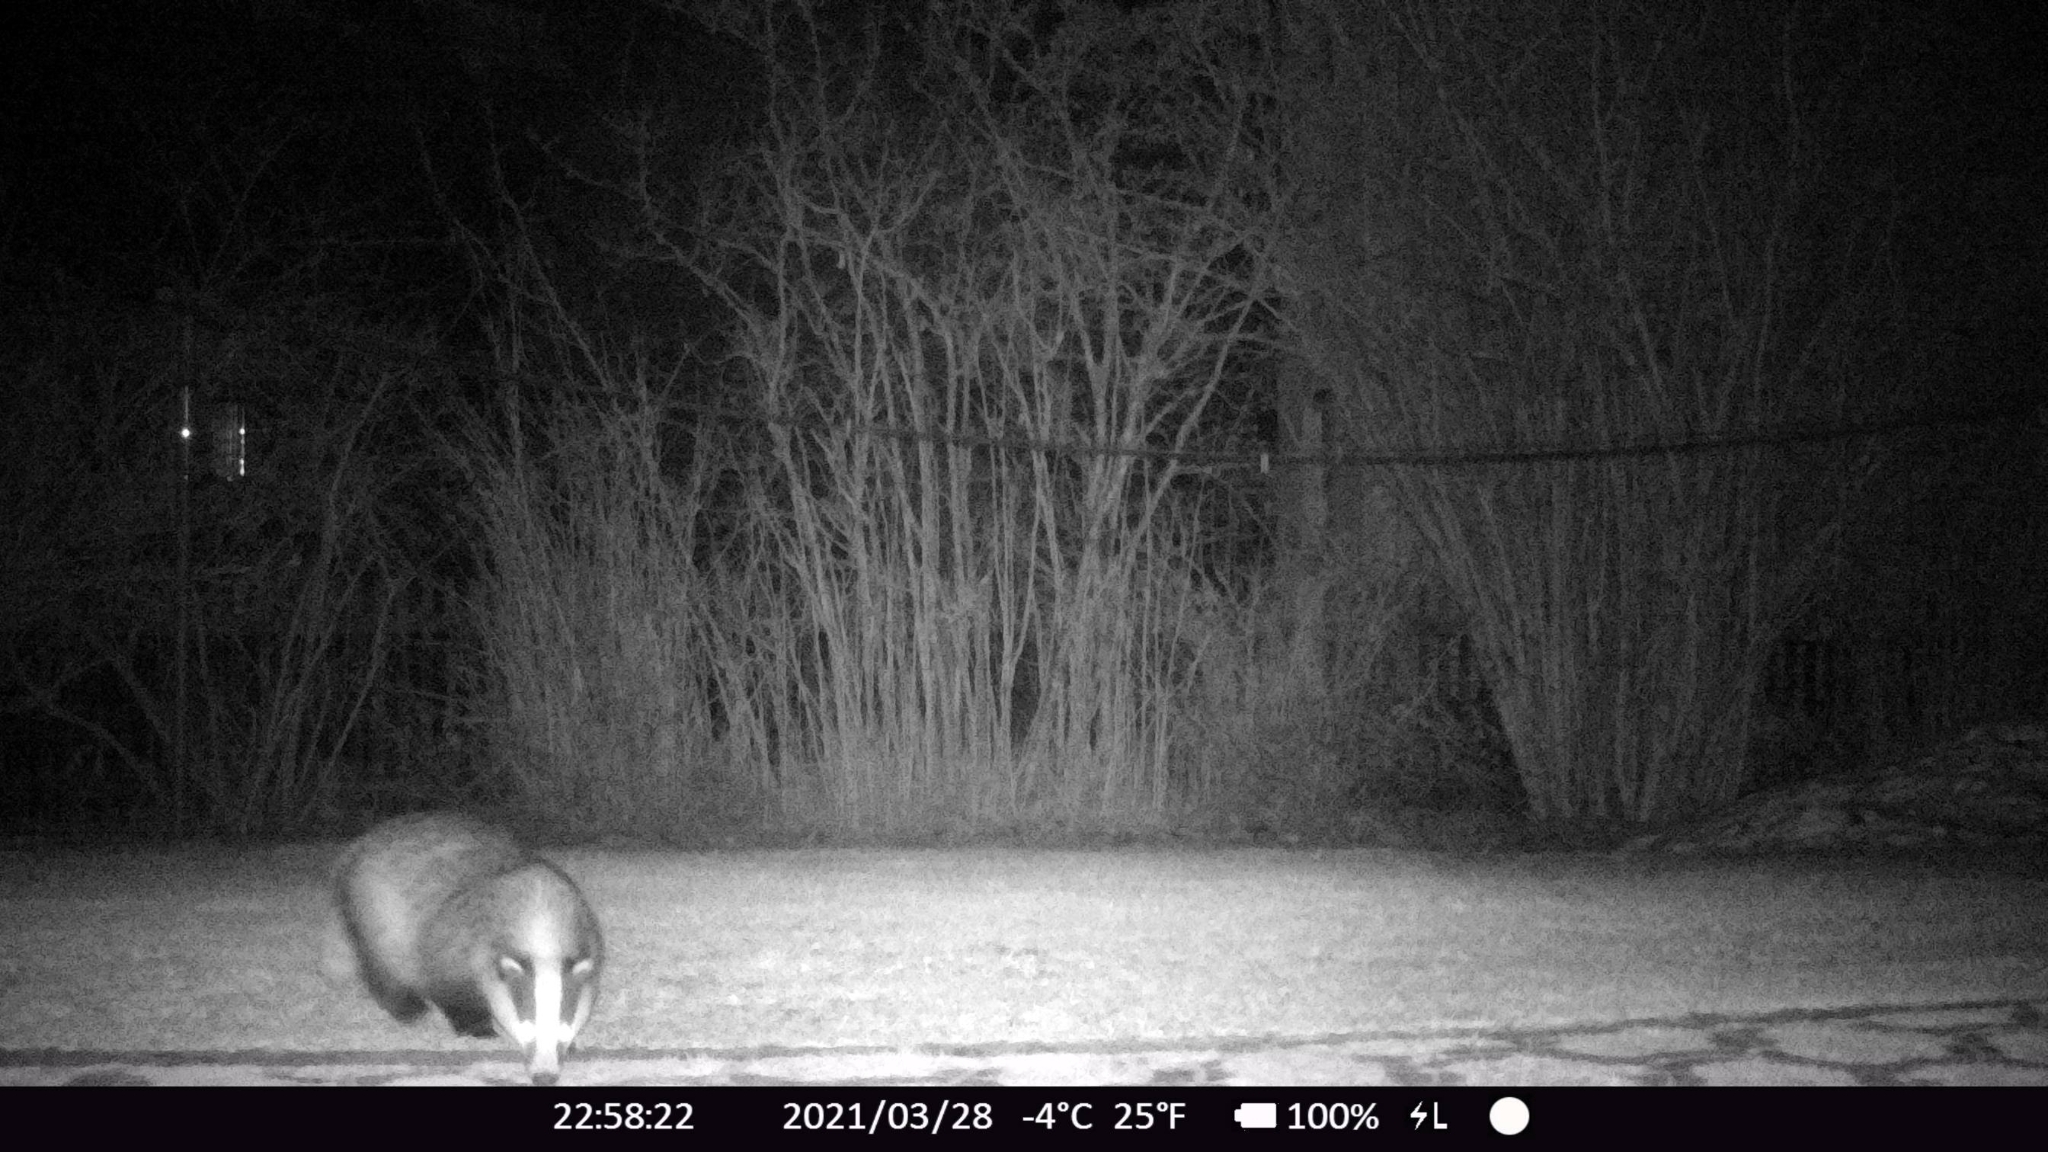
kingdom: Animalia
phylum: Chordata
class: Mammalia
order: Carnivora
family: Mustelidae
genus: Meles
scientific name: Meles meles
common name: Eurasian badger
